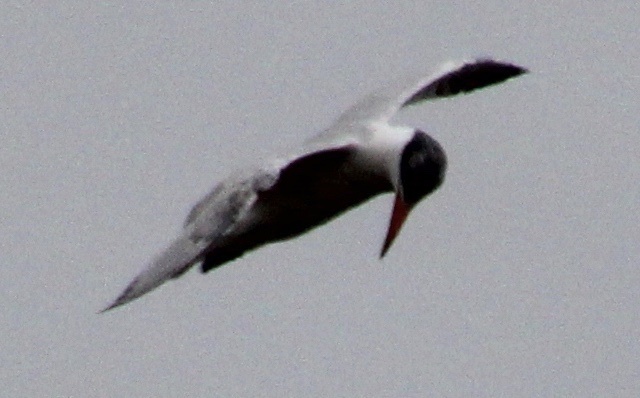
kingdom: Animalia
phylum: Chordata
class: Aves
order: Charadriiformes
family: Laridae
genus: Hydroprogne
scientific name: Hydroprogne caspia
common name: Caspian tern
